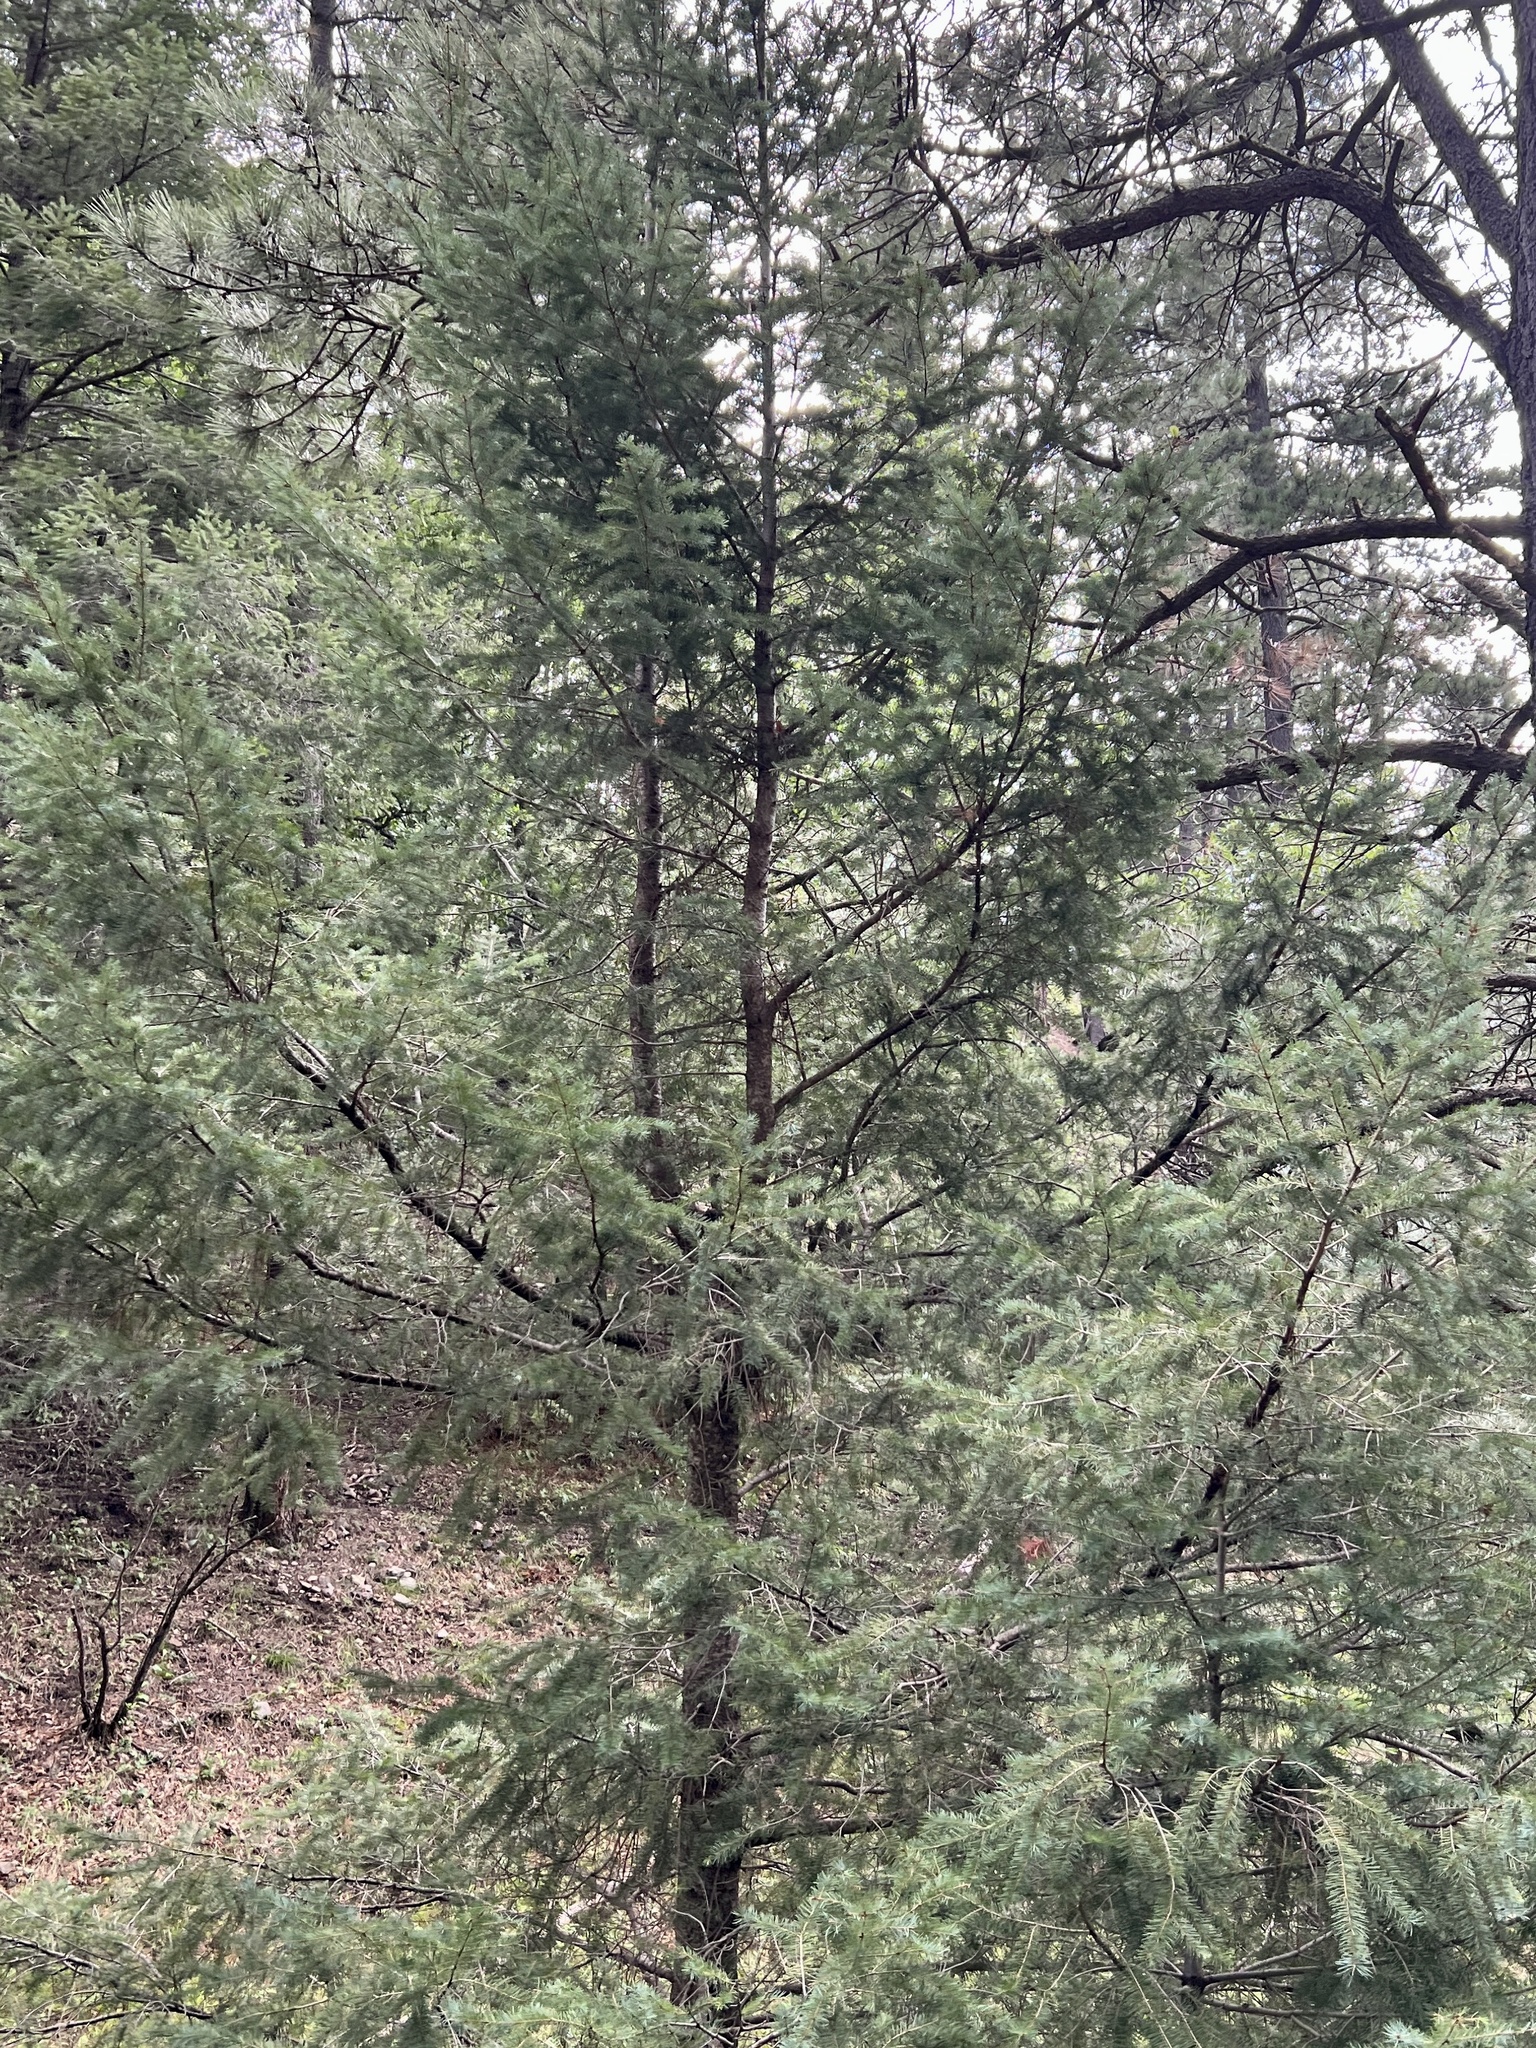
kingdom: Plantae
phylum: Tracheophyta
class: Pinopsida
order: Pinales
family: Pinaceae
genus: Pseudotsuga
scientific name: Pseudotsuga menziesii
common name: Douglas fir
